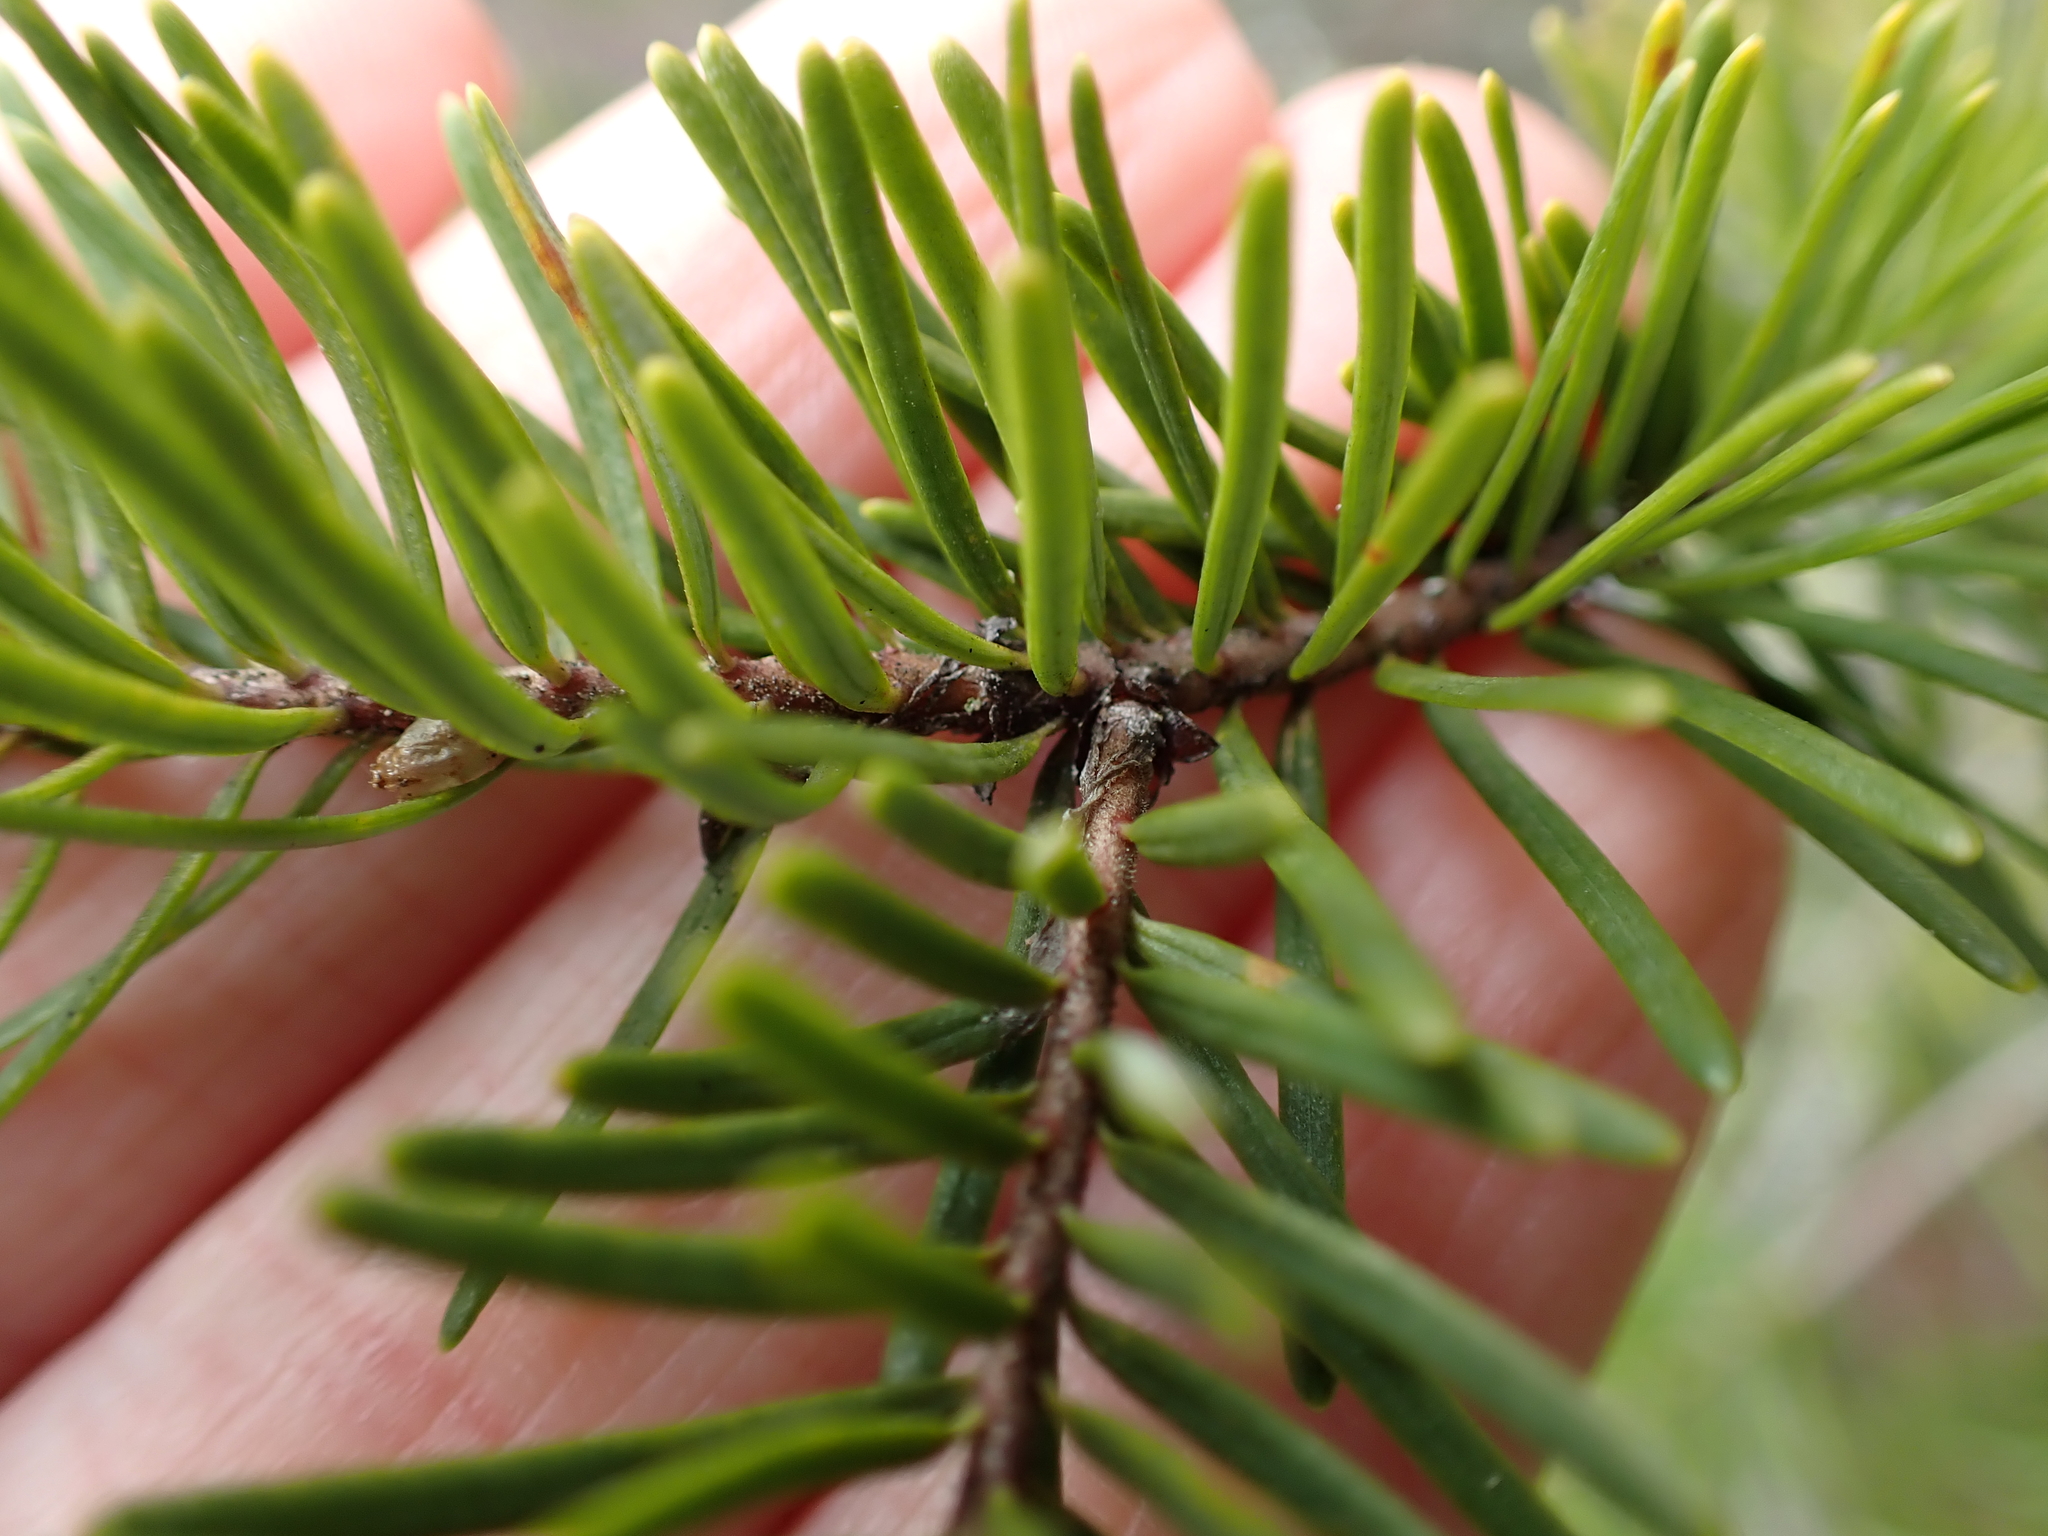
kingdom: Plantae
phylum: Tracheophyta
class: Pinopsida
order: Pinales
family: Pinaceae
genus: Pseudotsuga
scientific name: Pseudotsuga menziesii
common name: Douglas fir
